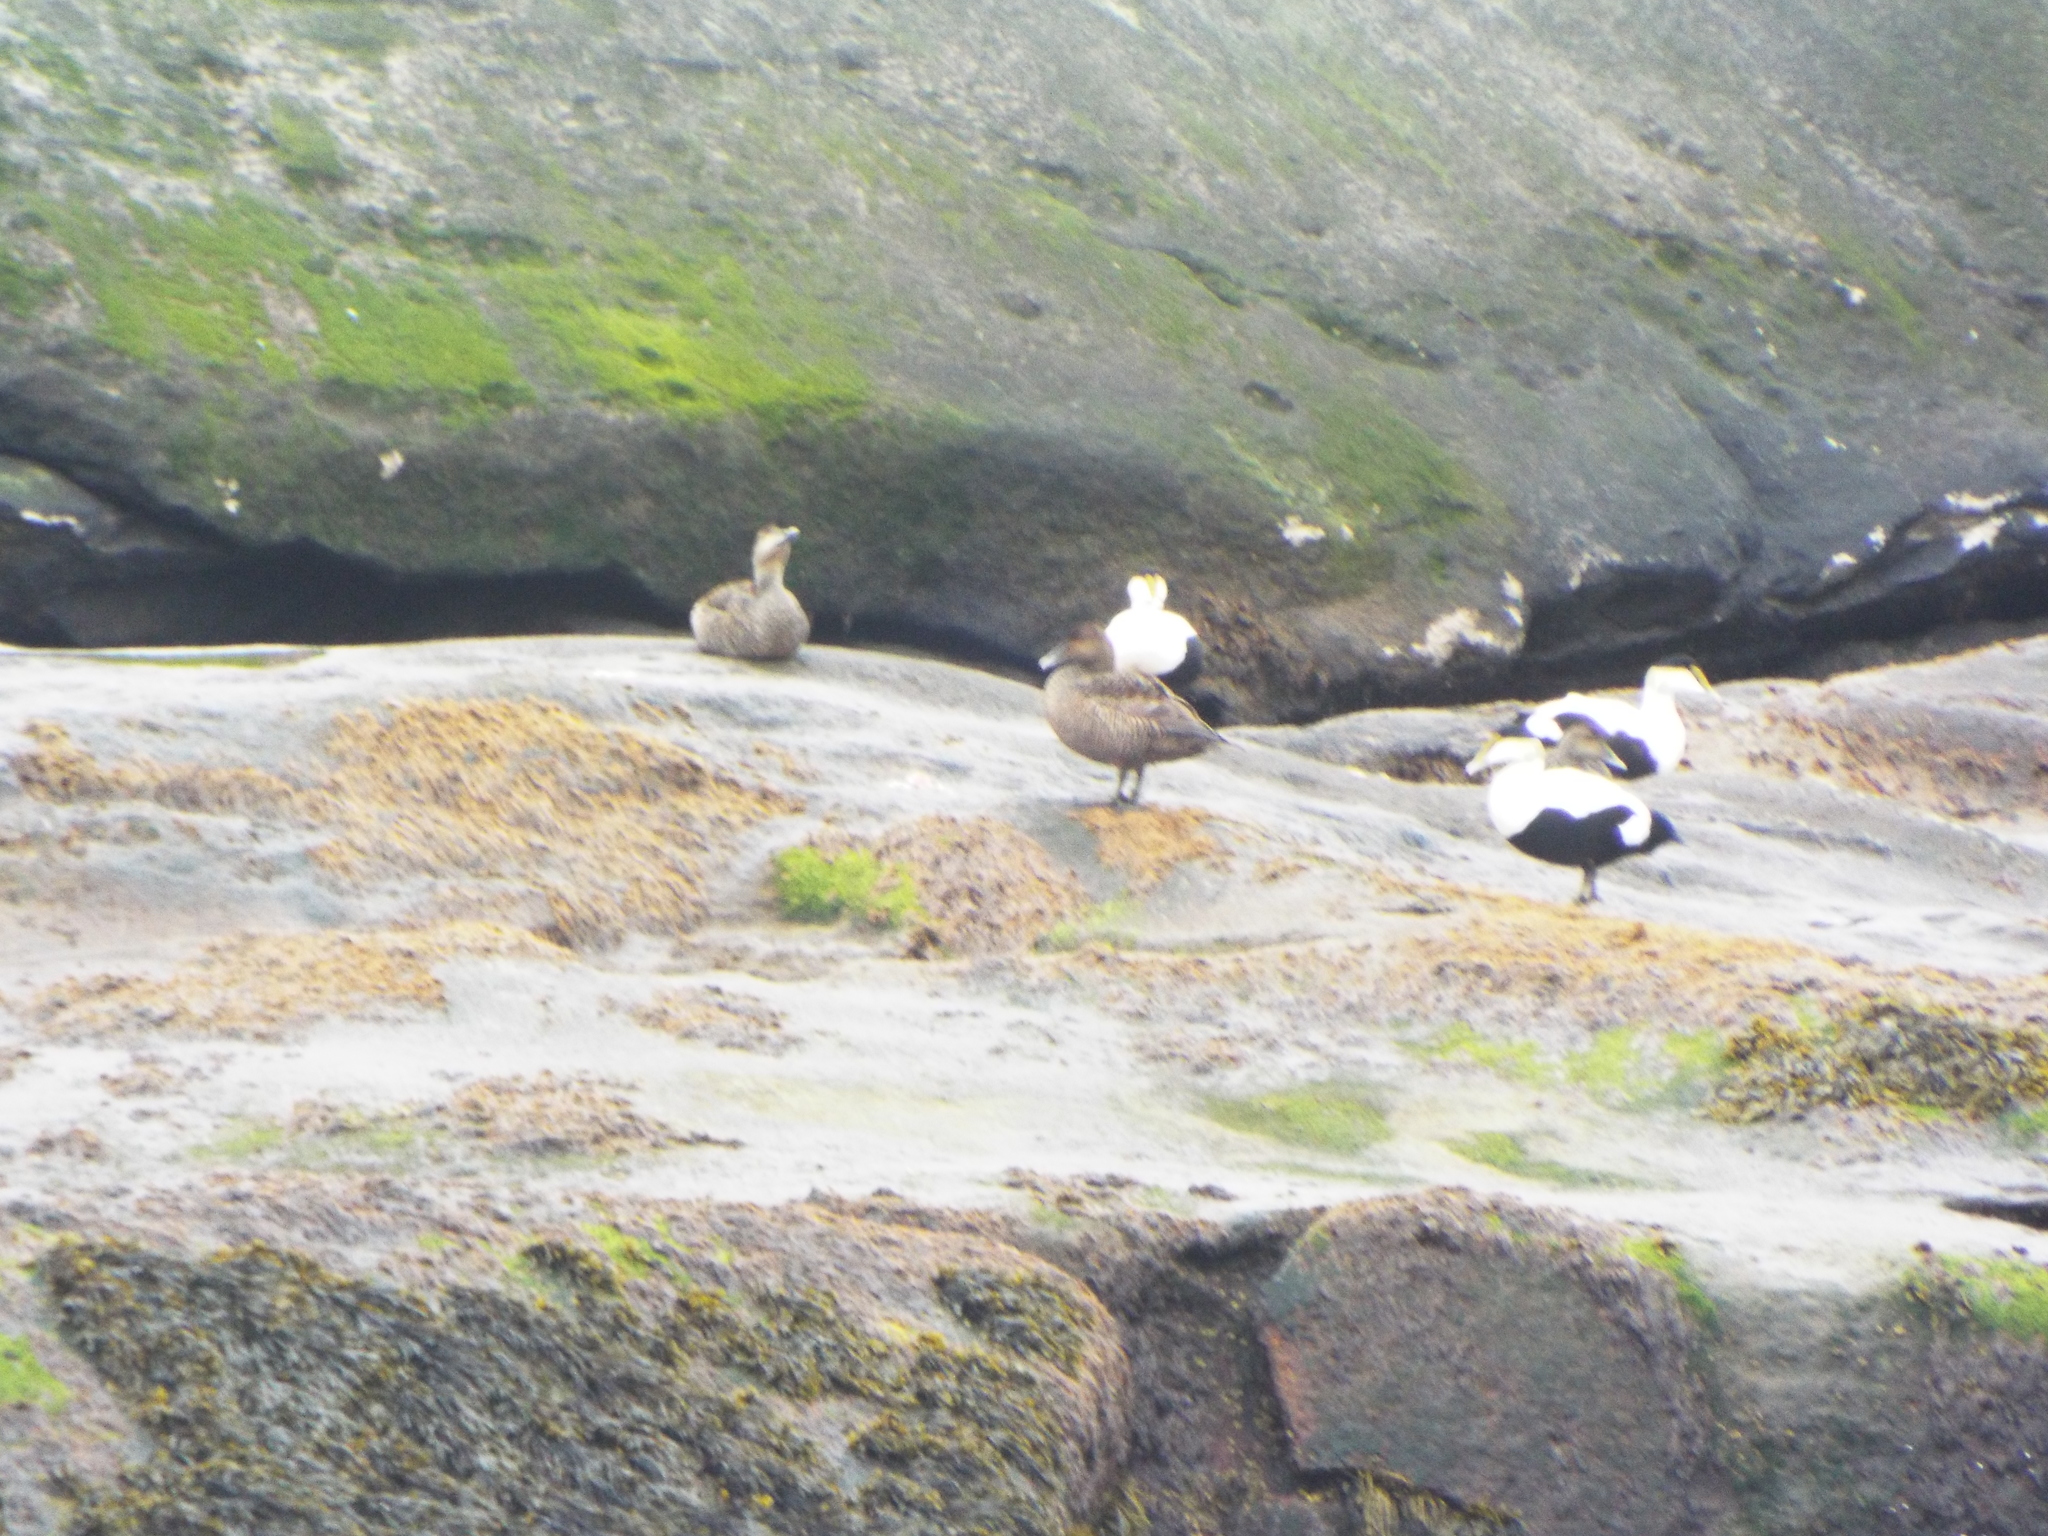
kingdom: Animalia
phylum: Chordata
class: Aves
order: Anseriformes
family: Anatidae
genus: Somateria
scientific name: Somateria mollissima
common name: Common eider
